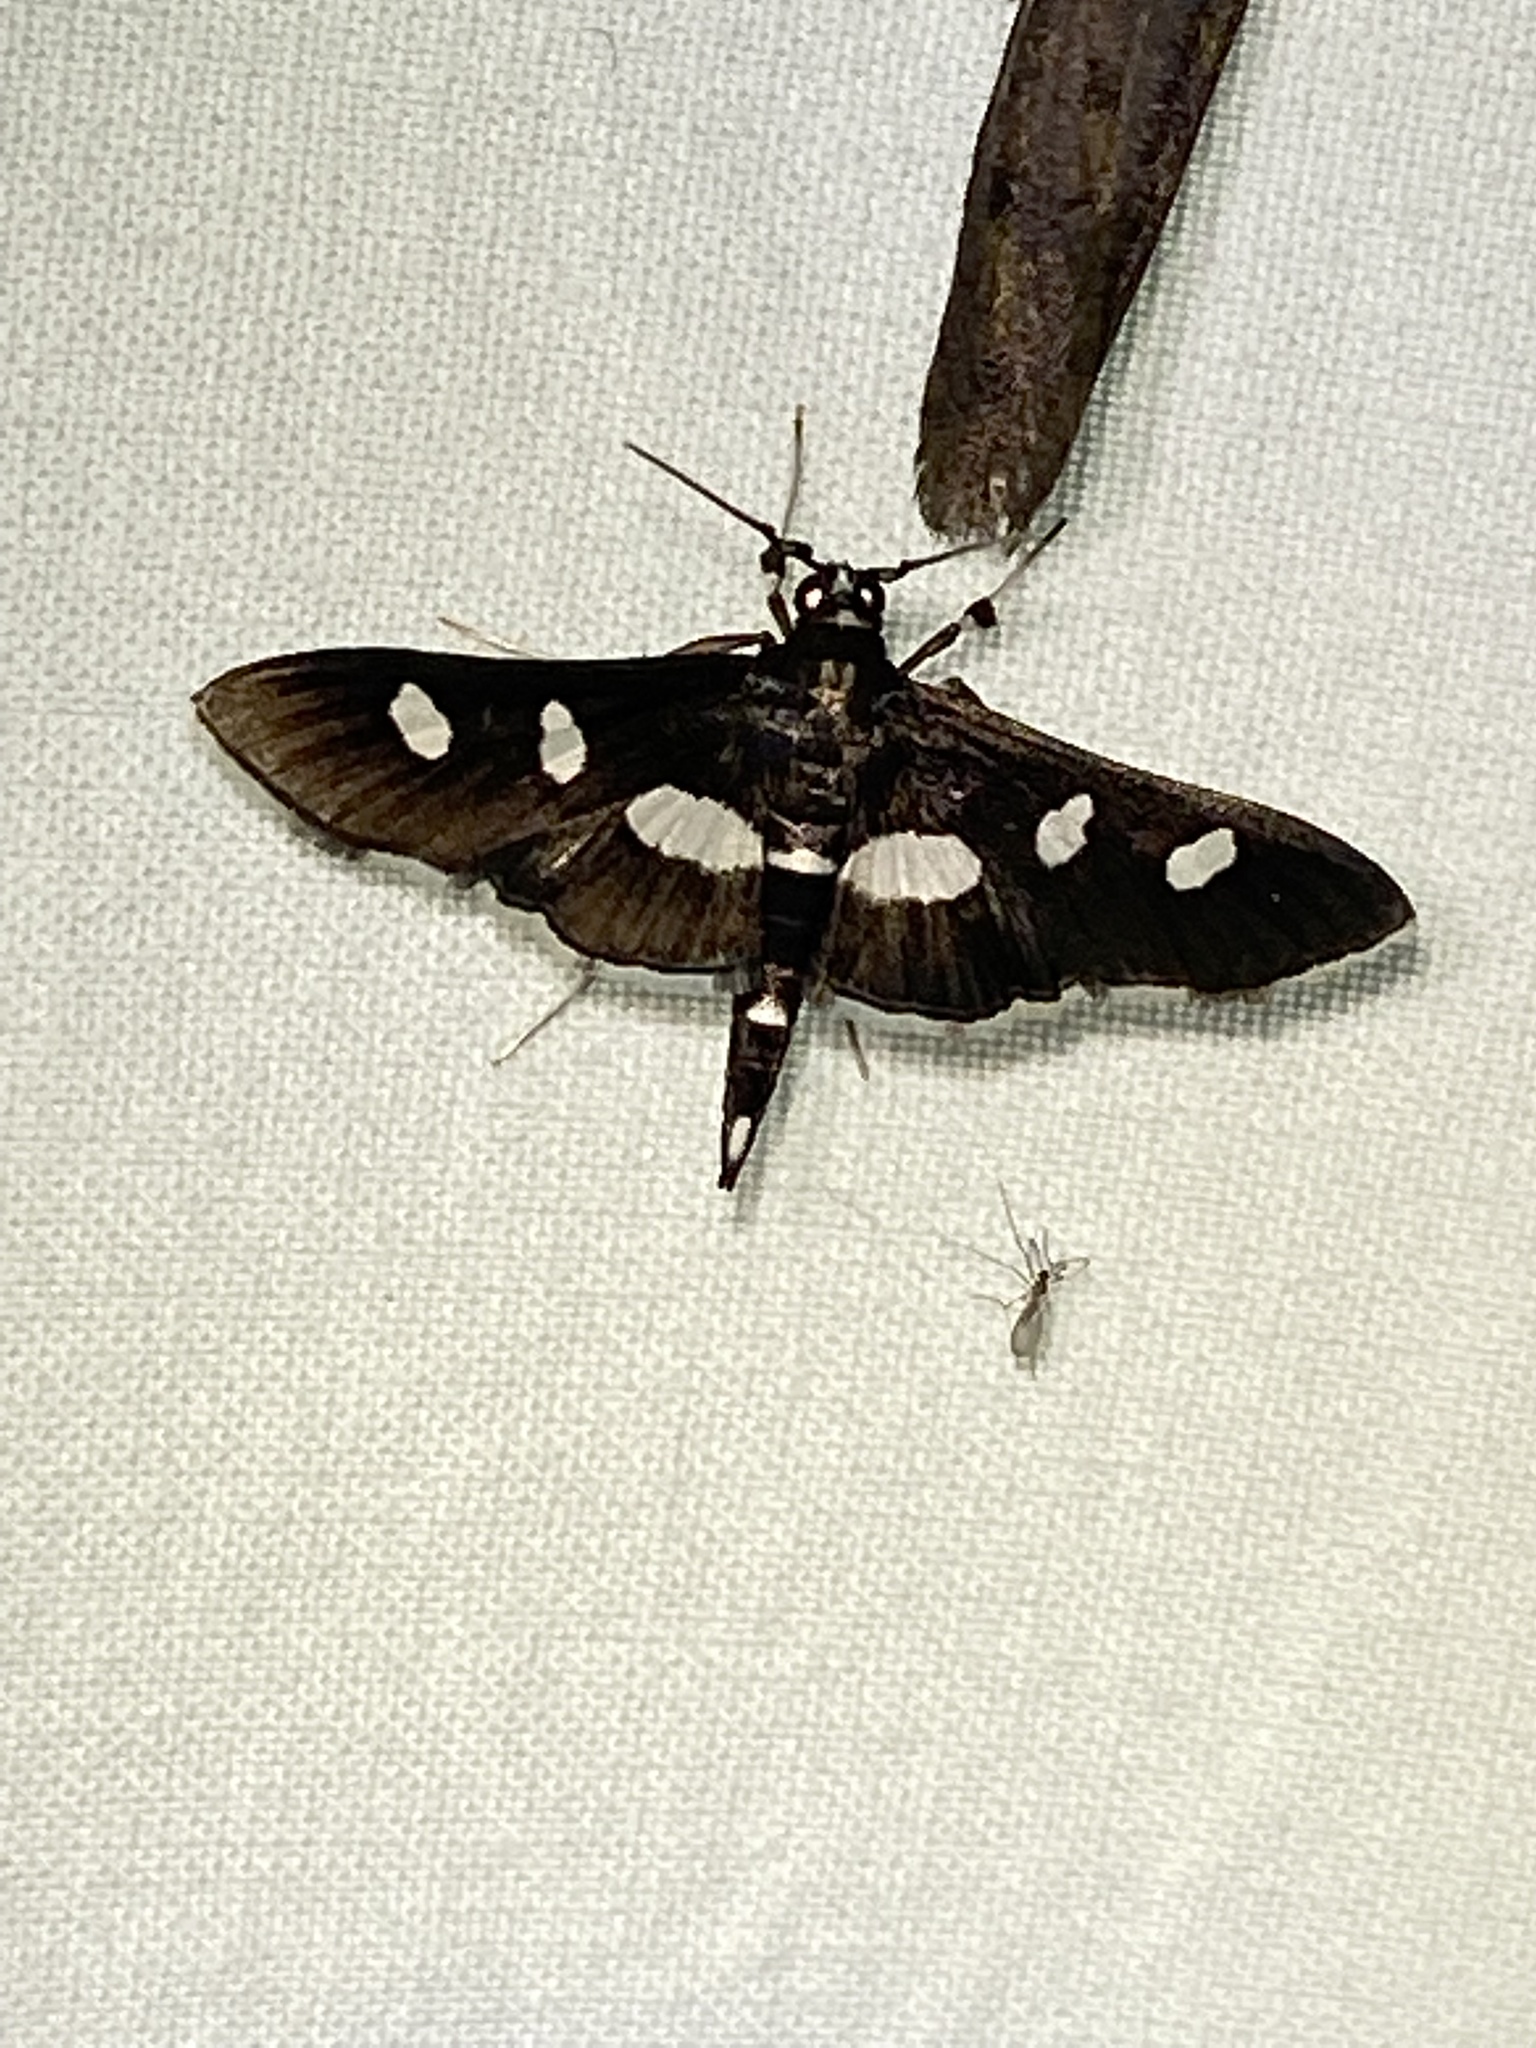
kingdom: Animalia
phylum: Arthropoda
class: Insecta
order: Lepidoptera
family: Crambidae
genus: Desmia
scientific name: Desmia
